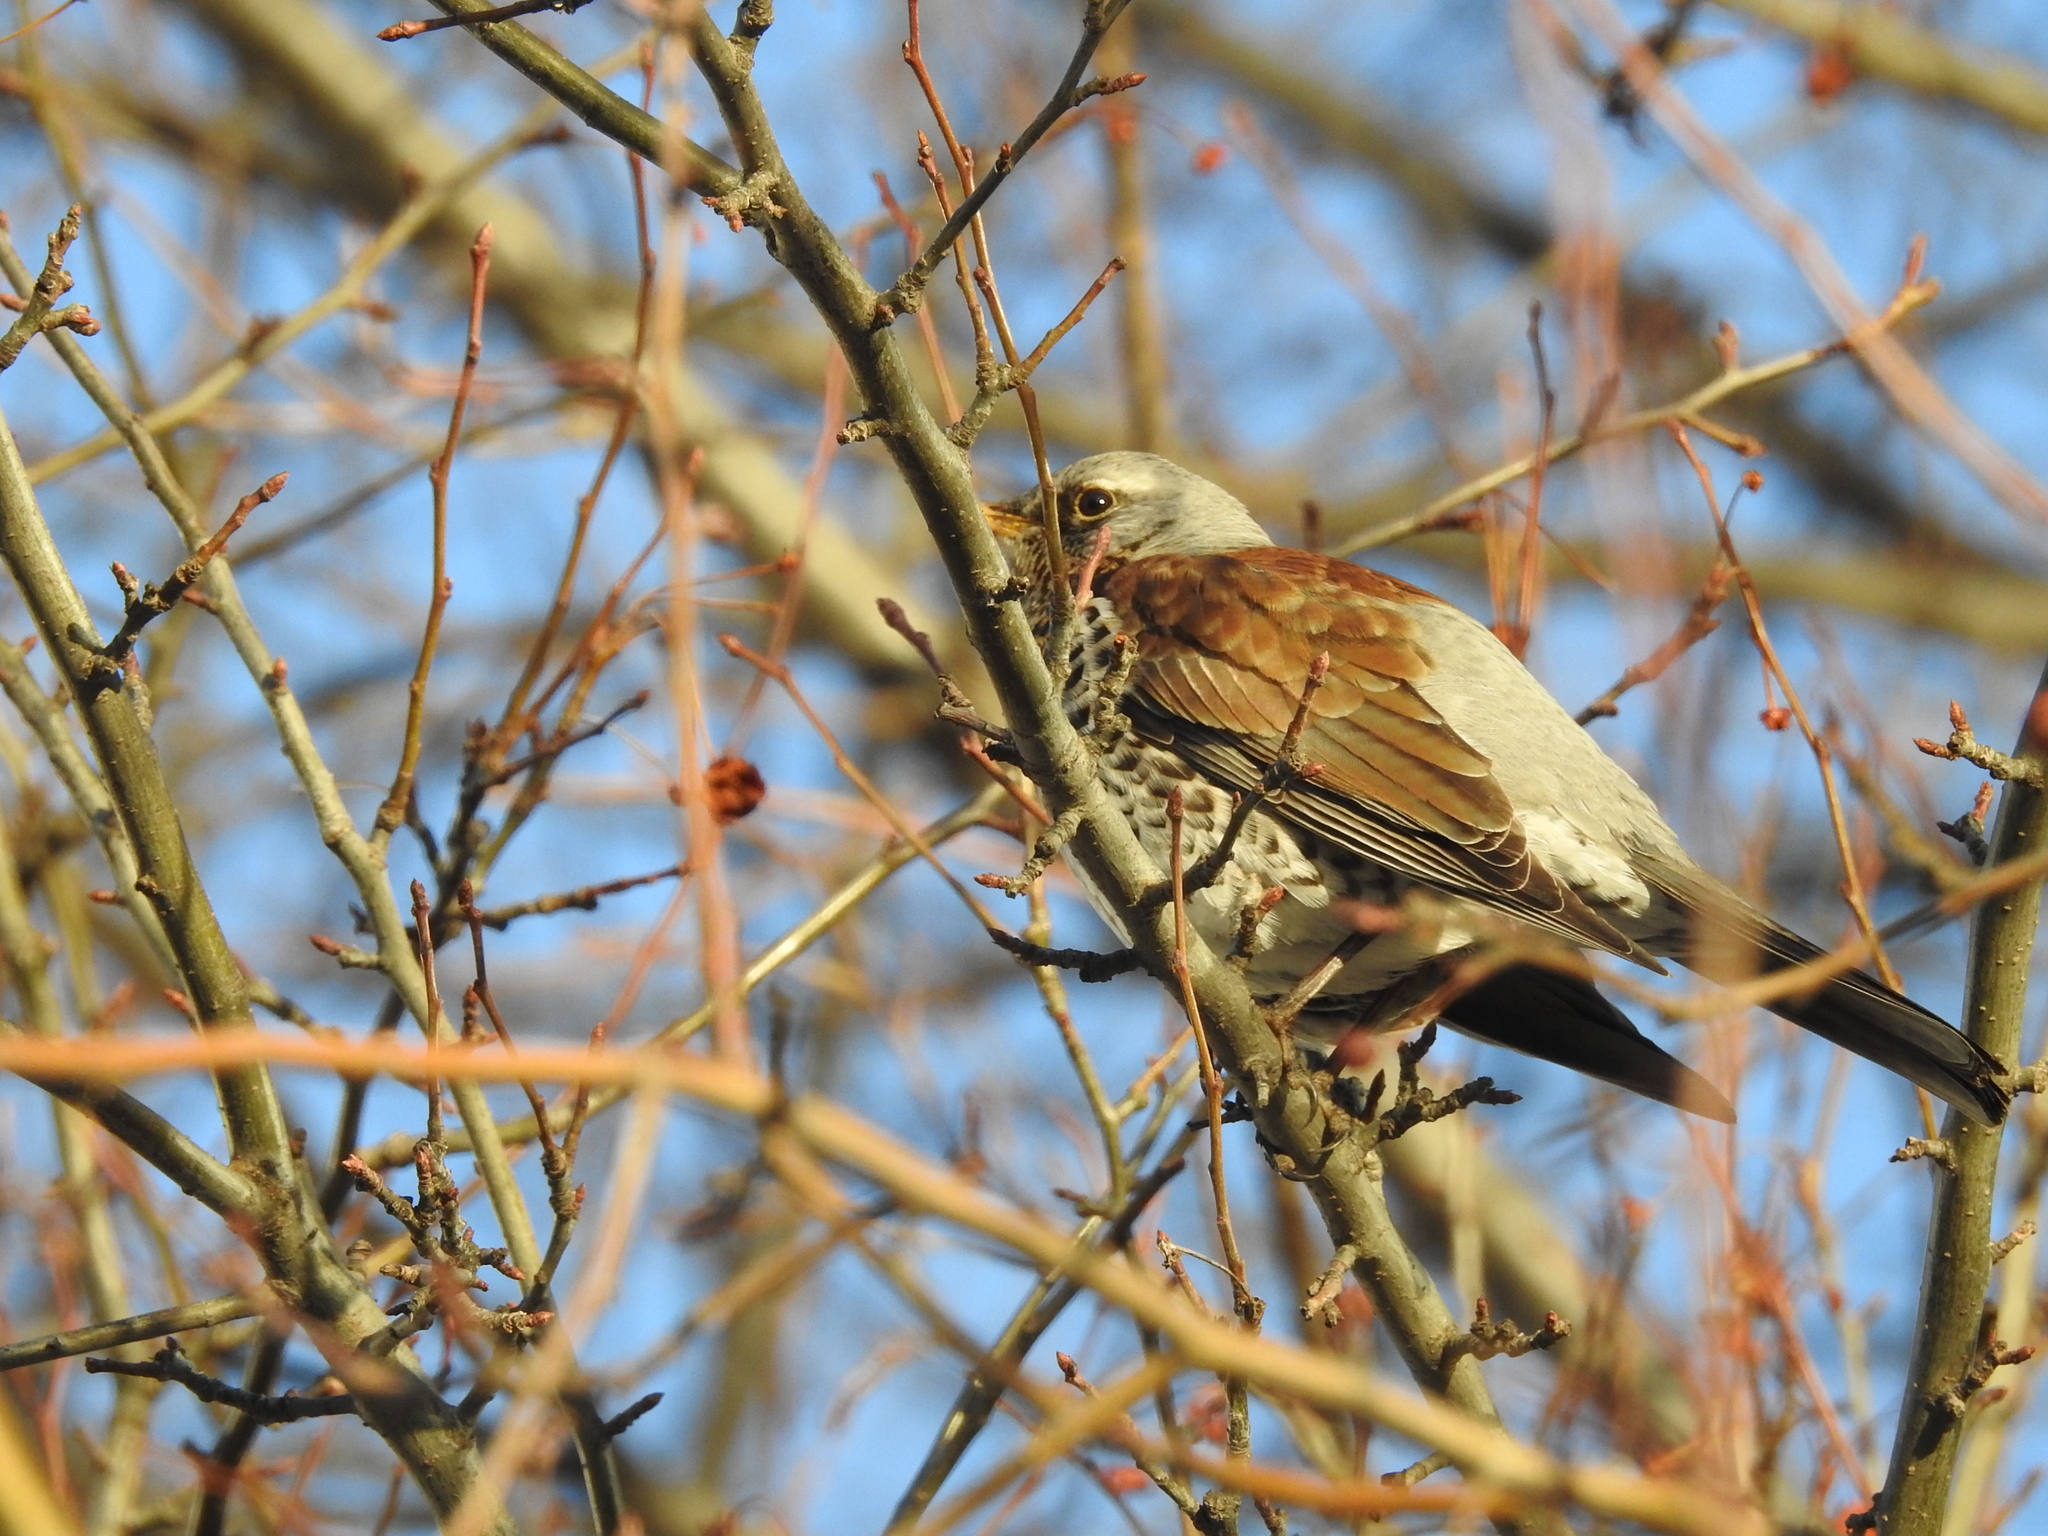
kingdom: Animalia
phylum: Chordata
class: Aves
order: Passeriformes
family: Turdidae
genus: Turdus
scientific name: Turdus pilaris
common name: Fieldfare
